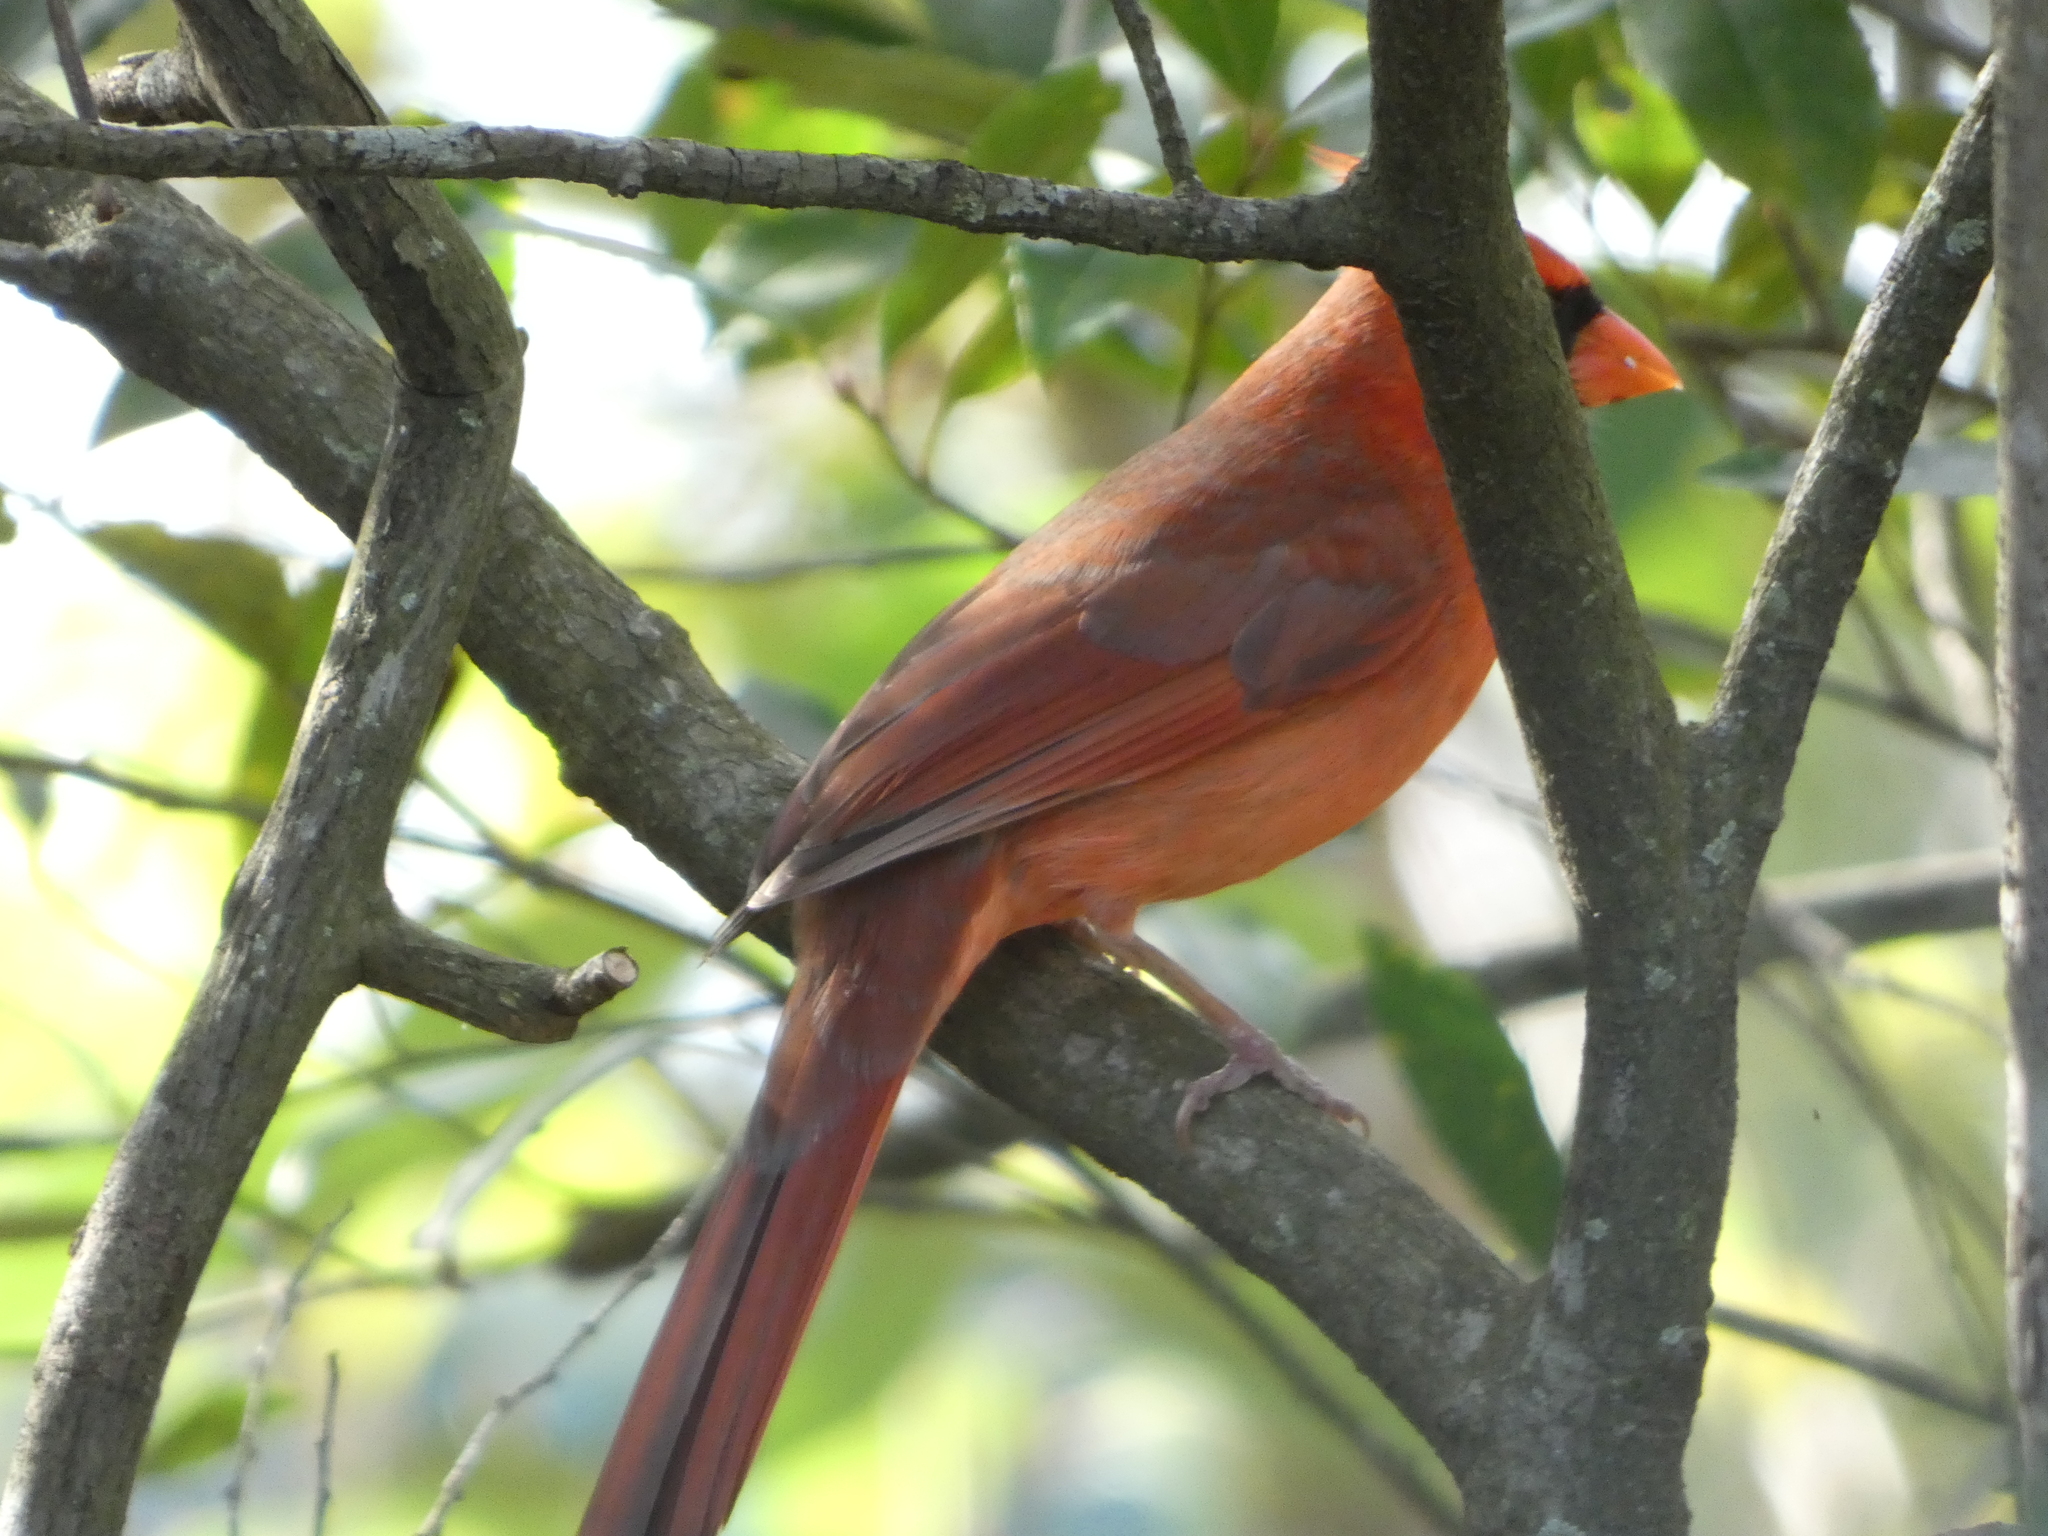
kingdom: Animalia
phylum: Chordata
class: Aves
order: Passeriformes
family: Cardinalidae
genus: Cardinalis
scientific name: Cardinalis cardinalis
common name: Northern cardinal
